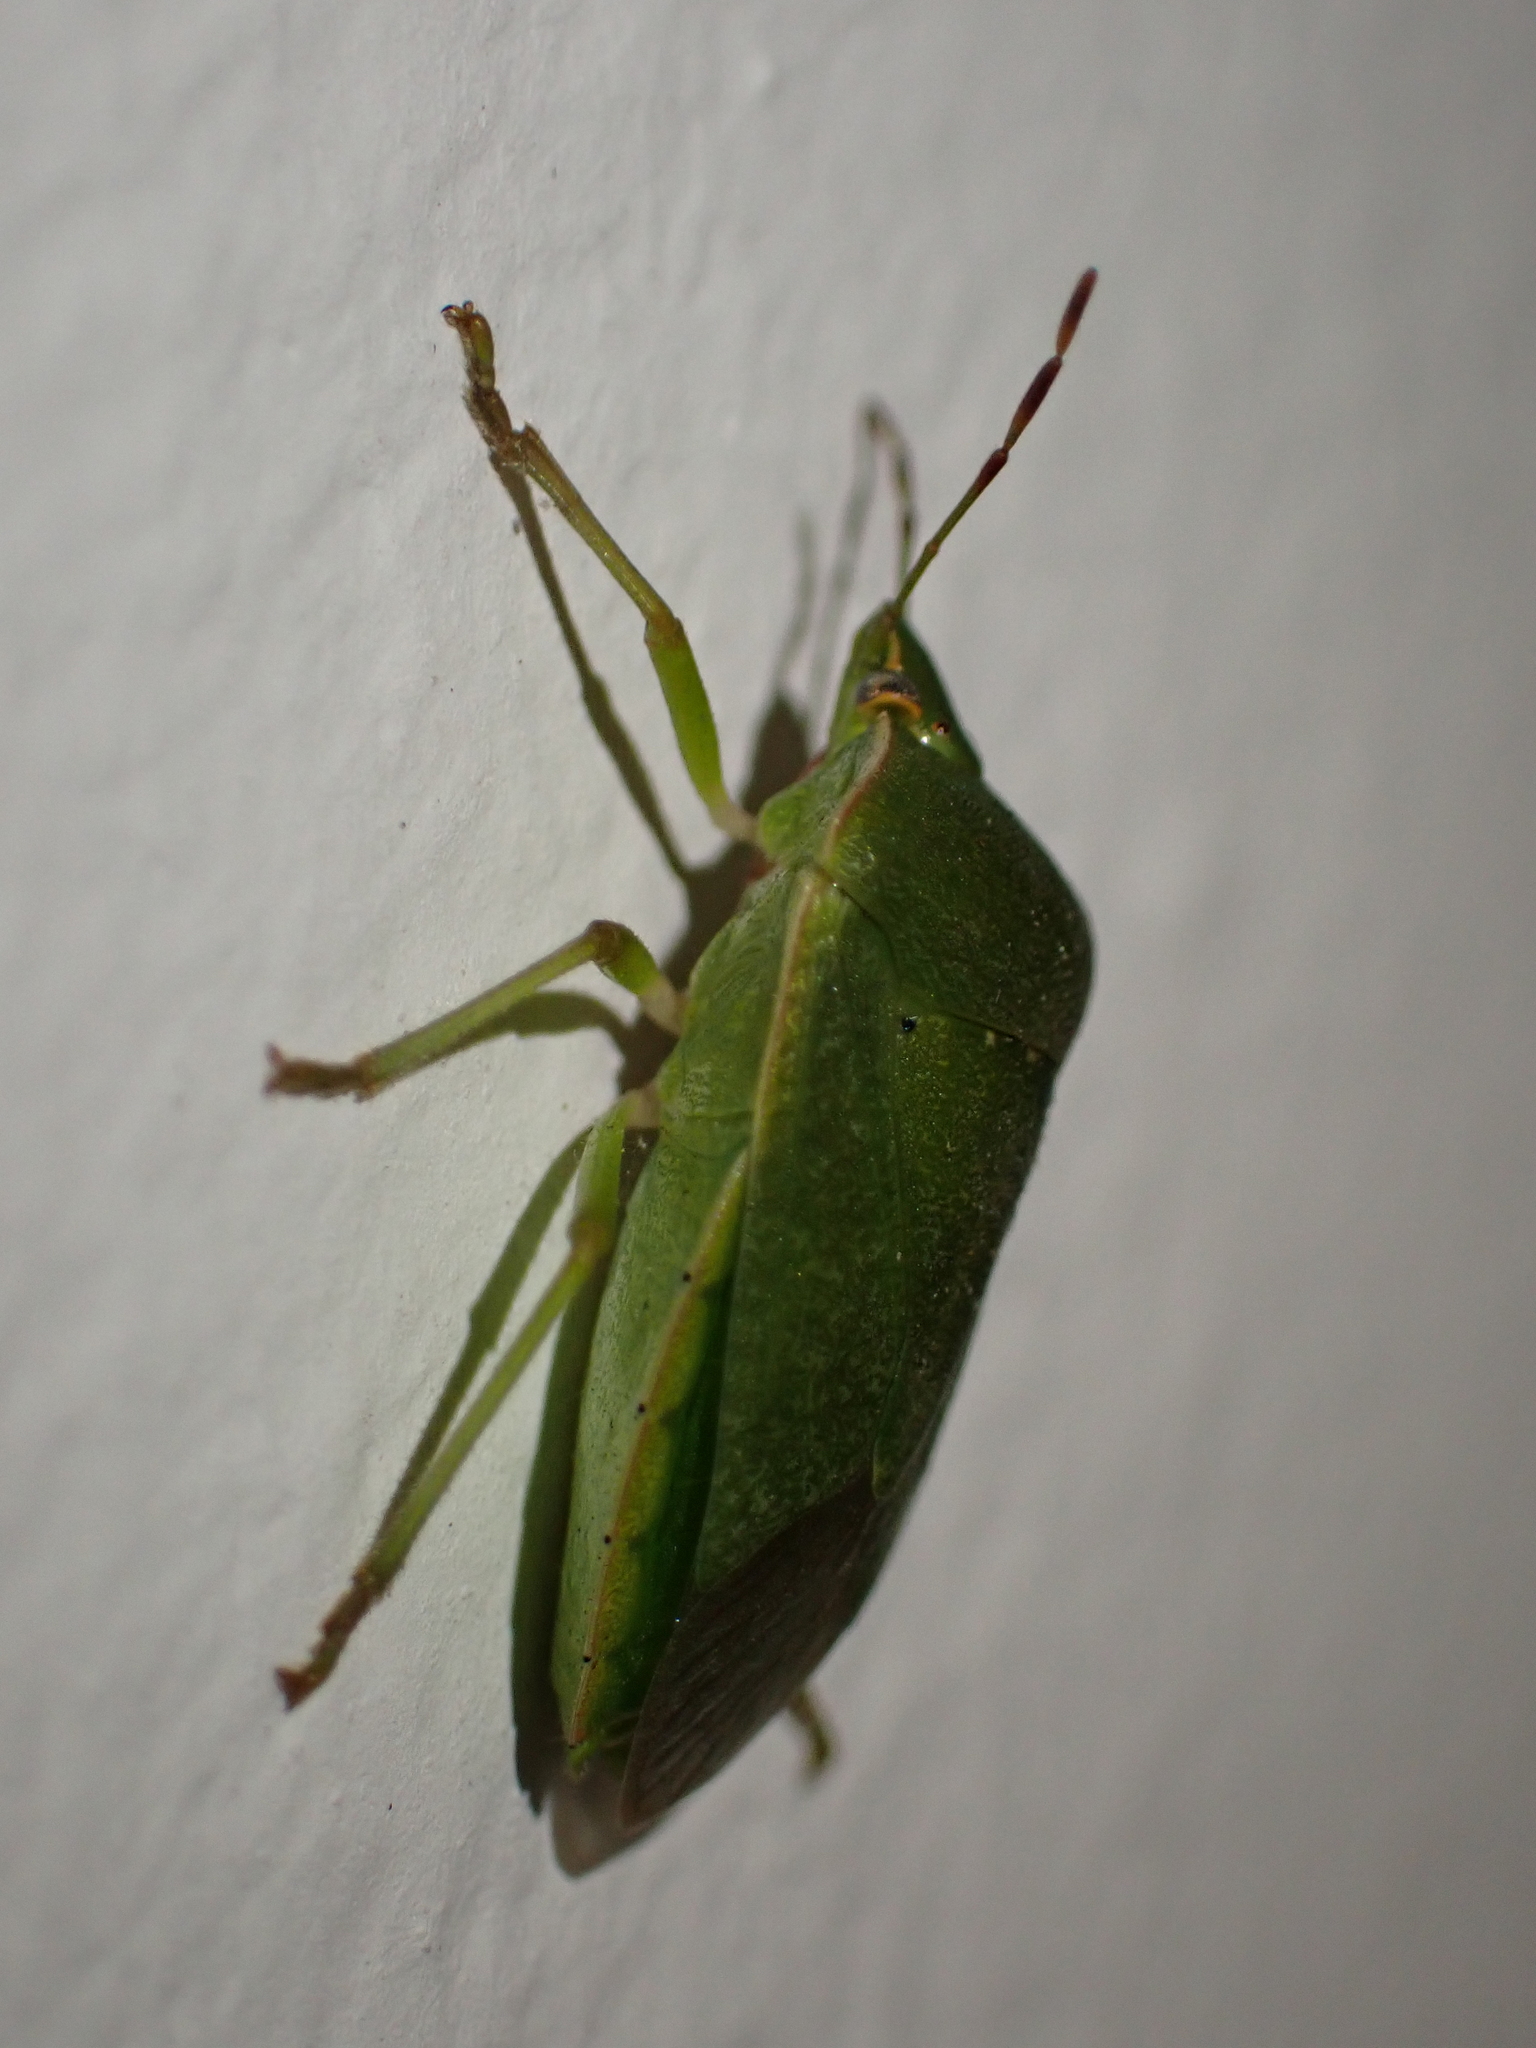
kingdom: Animalia
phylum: Arthropoda
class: Insecta
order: Hemiptera
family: Pentatomidae
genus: Nezara
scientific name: Nezara viridula
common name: Southern green stink bug
